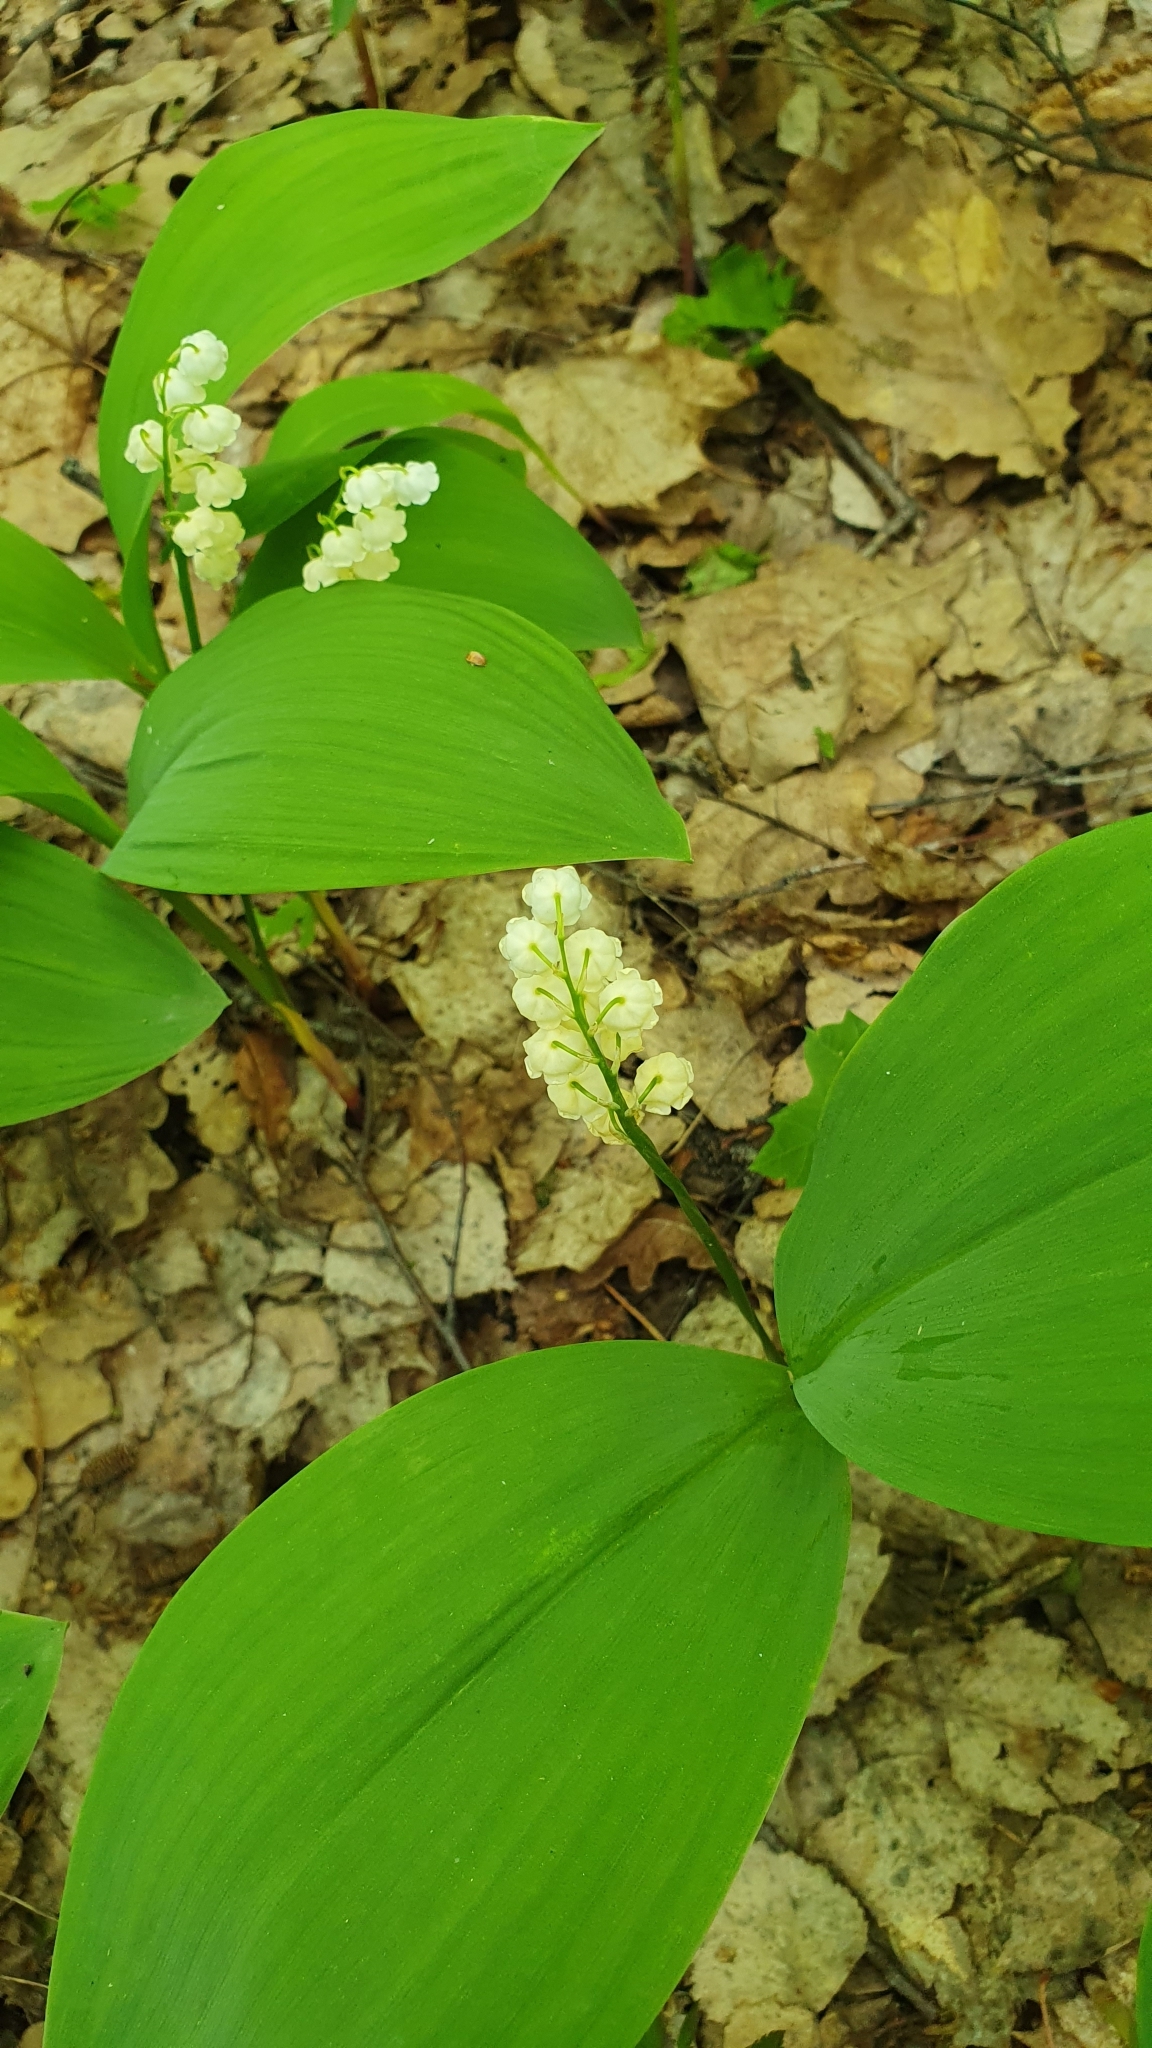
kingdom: Plantae
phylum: Tracheophyta
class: Liliopsida
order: Asparagales
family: Asparagaceae
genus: Convallaria
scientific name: Convallaria majalis
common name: Lily-of-the-valley
